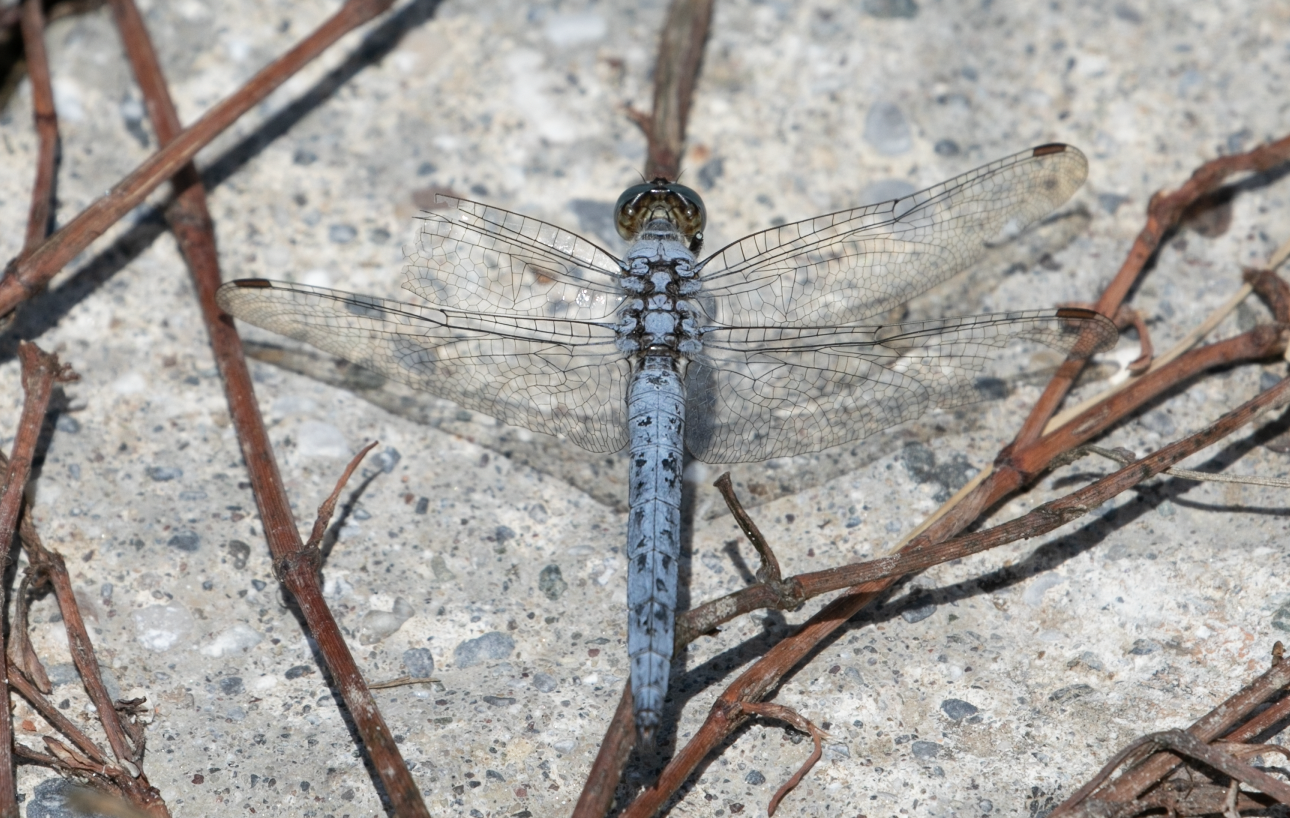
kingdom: Animalia
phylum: Arthropoda
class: Insecta
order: Odonata
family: Libellulidae
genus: Orthetrum
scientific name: Orthetrum brunneum
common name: Southern skimmer
